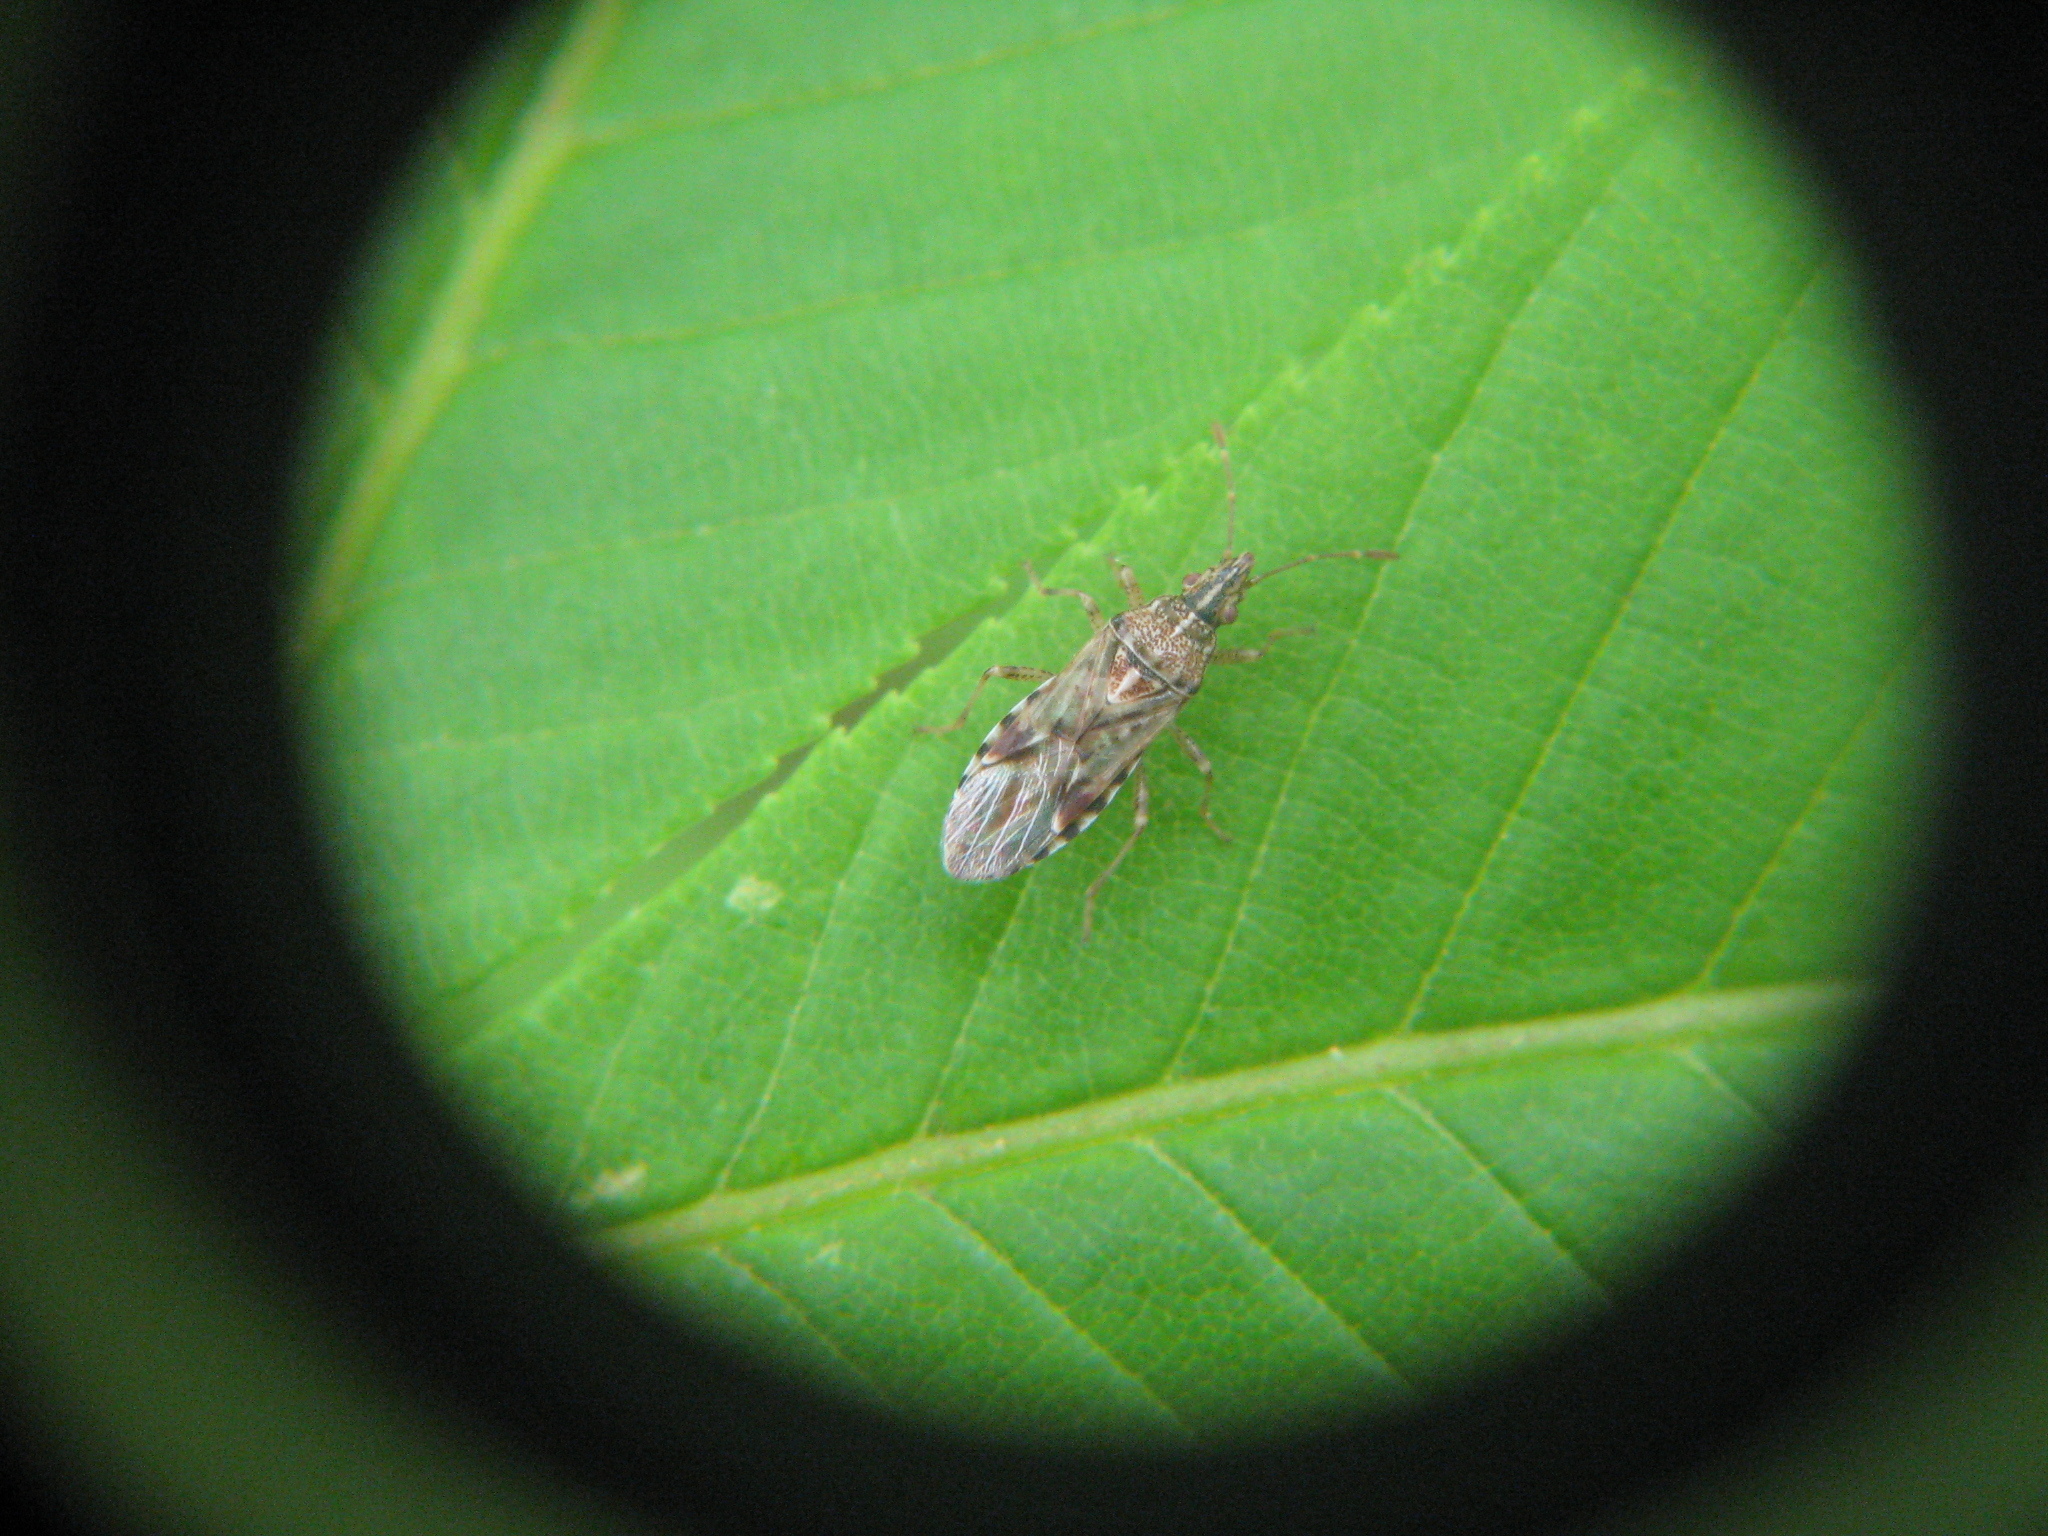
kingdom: Animalia
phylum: Arthropoda
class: Insecta
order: Hemiptera
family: Lygaeidae
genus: Belonochilus
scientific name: Belonochilus numenius
